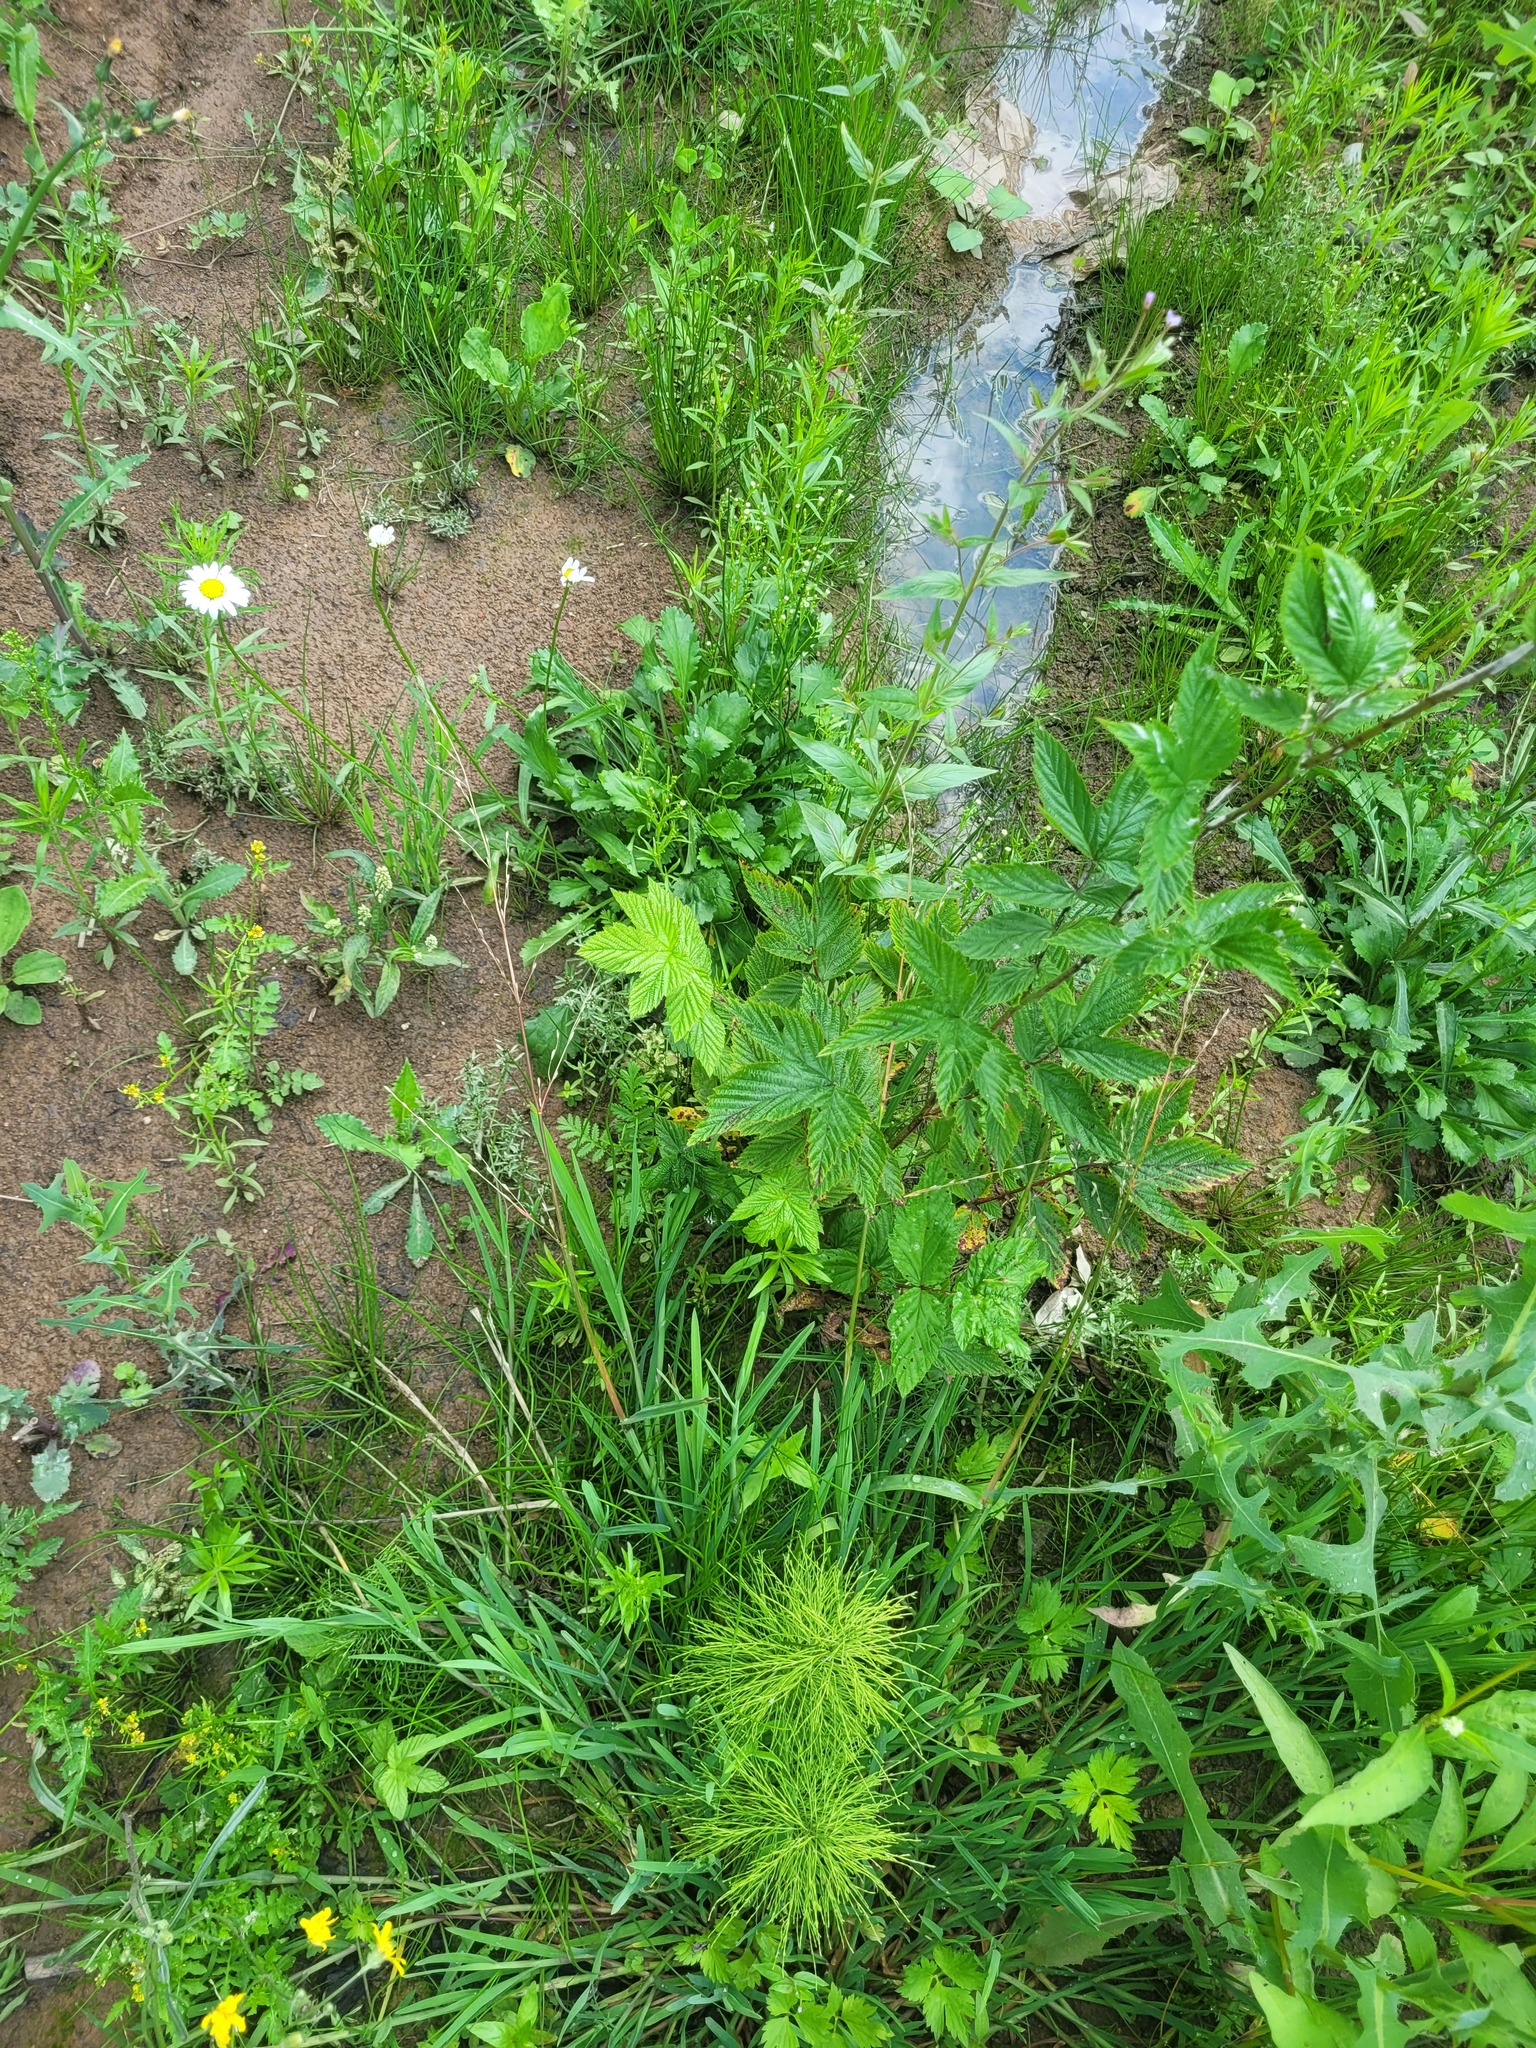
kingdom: Plantae
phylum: Tracheophyta
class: Magnoliopsida
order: Rosales
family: Rosaceae
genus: Filipendula
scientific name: Filipendula ulmaria
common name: Meadowsweet
